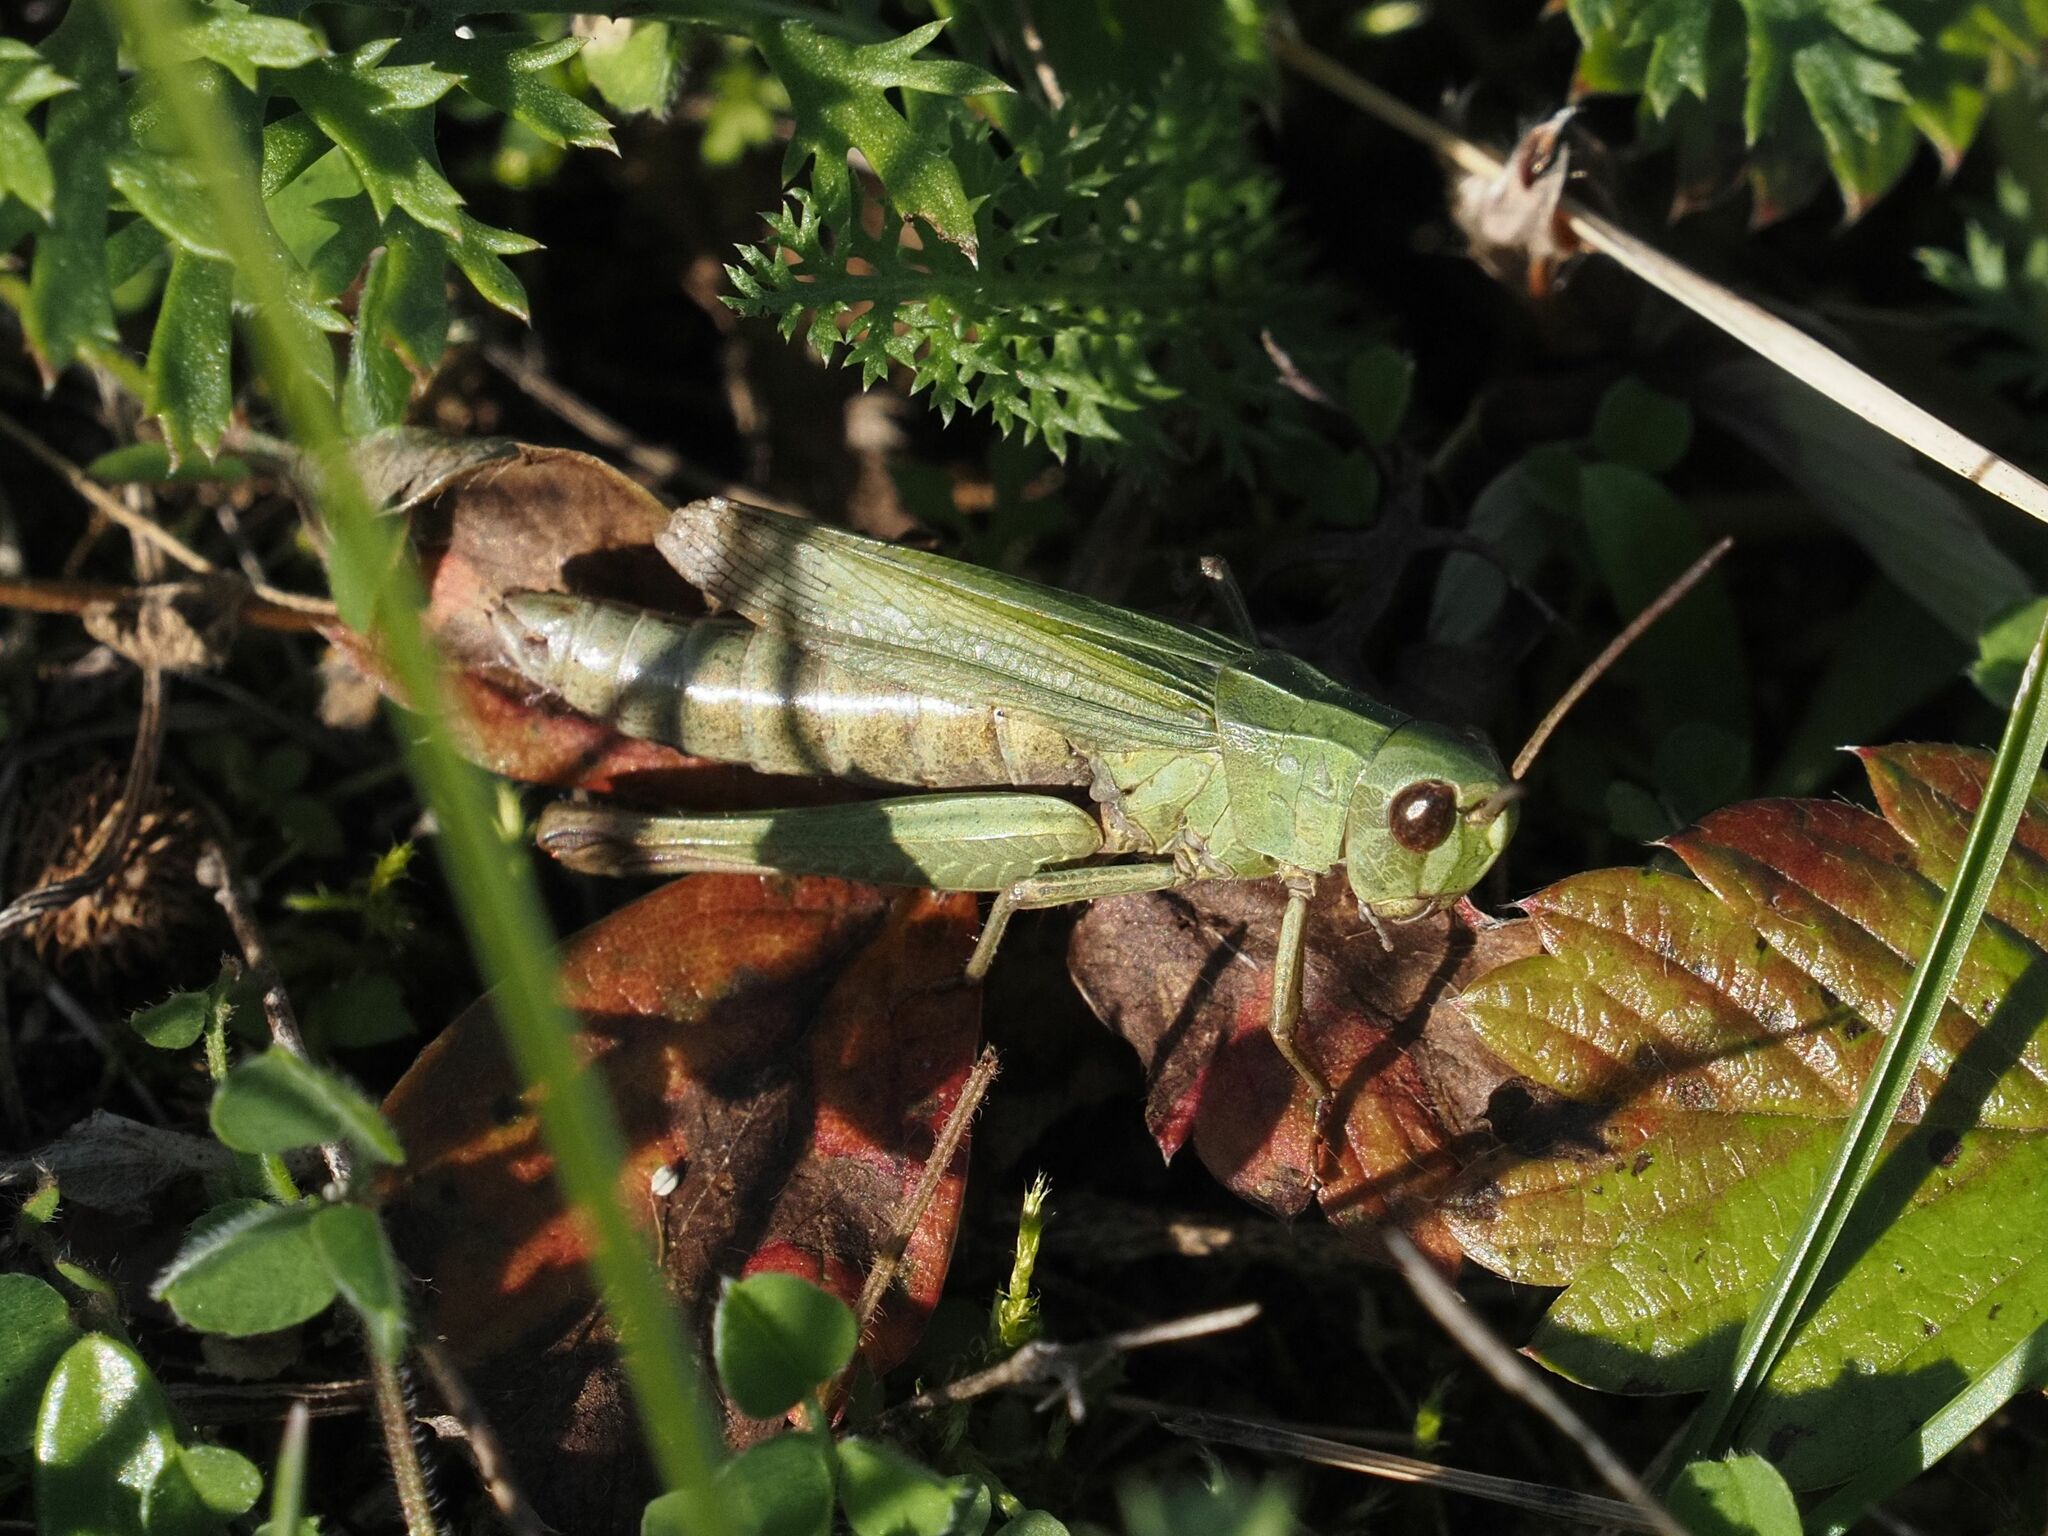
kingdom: Animalia
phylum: Arthropoda
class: Insecta
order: Orthoptera
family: Acrididae
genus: Chorthippus
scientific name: Chorthippus dorsatus
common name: Steppe grasshopper
